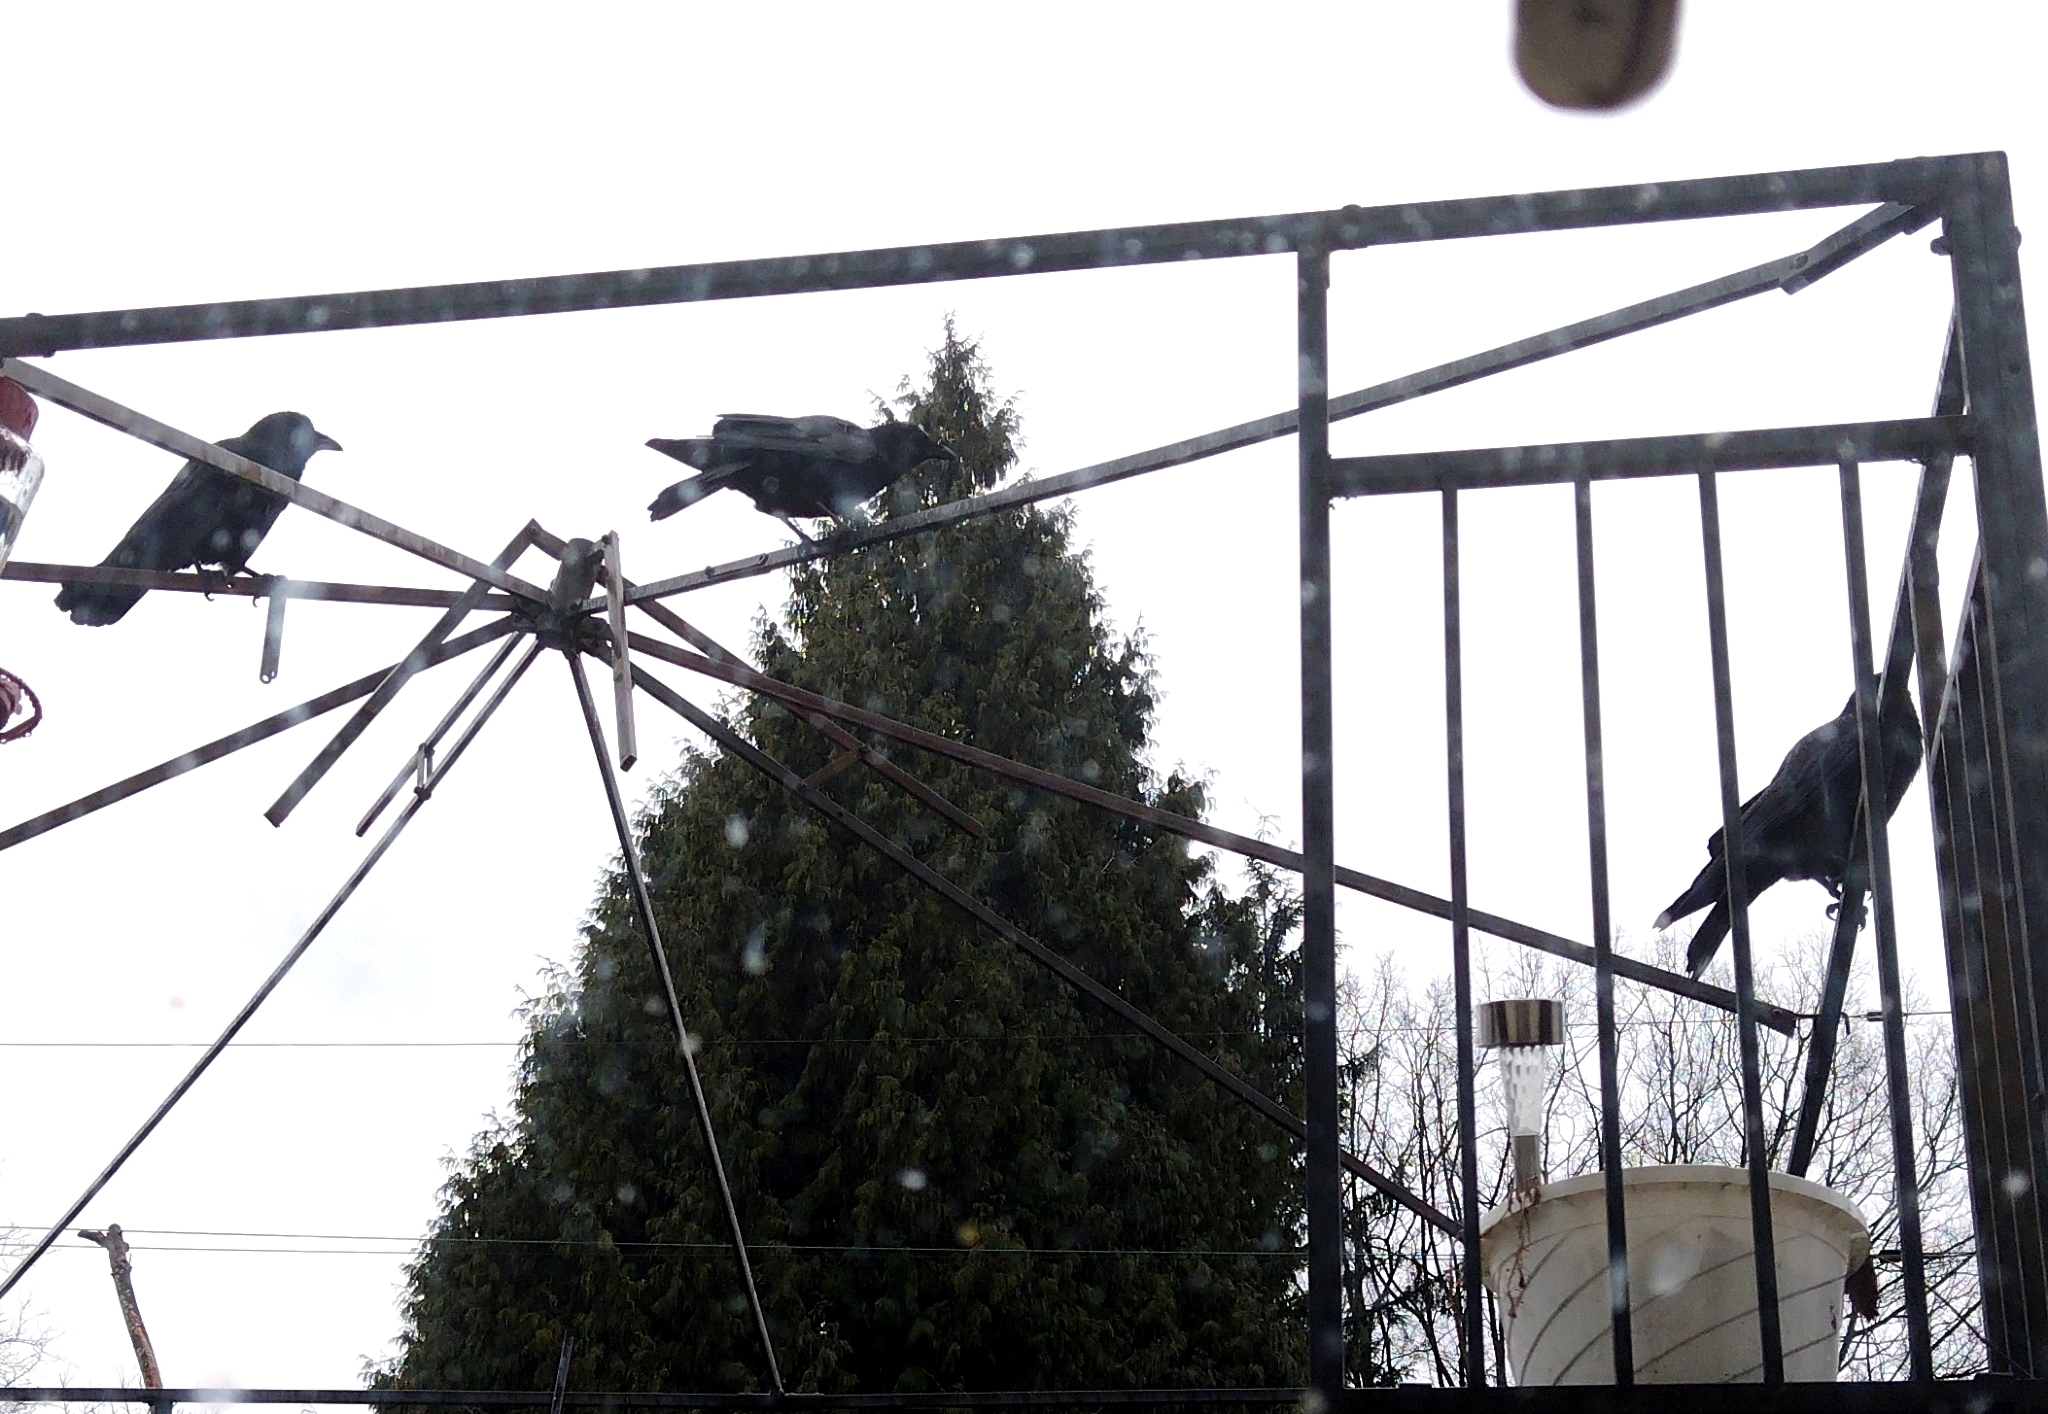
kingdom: Animalia
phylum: Chordata
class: Aves
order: Passeriformes
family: Corvidae
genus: Corvus
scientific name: Corvus brachyrhynchos
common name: American crow
